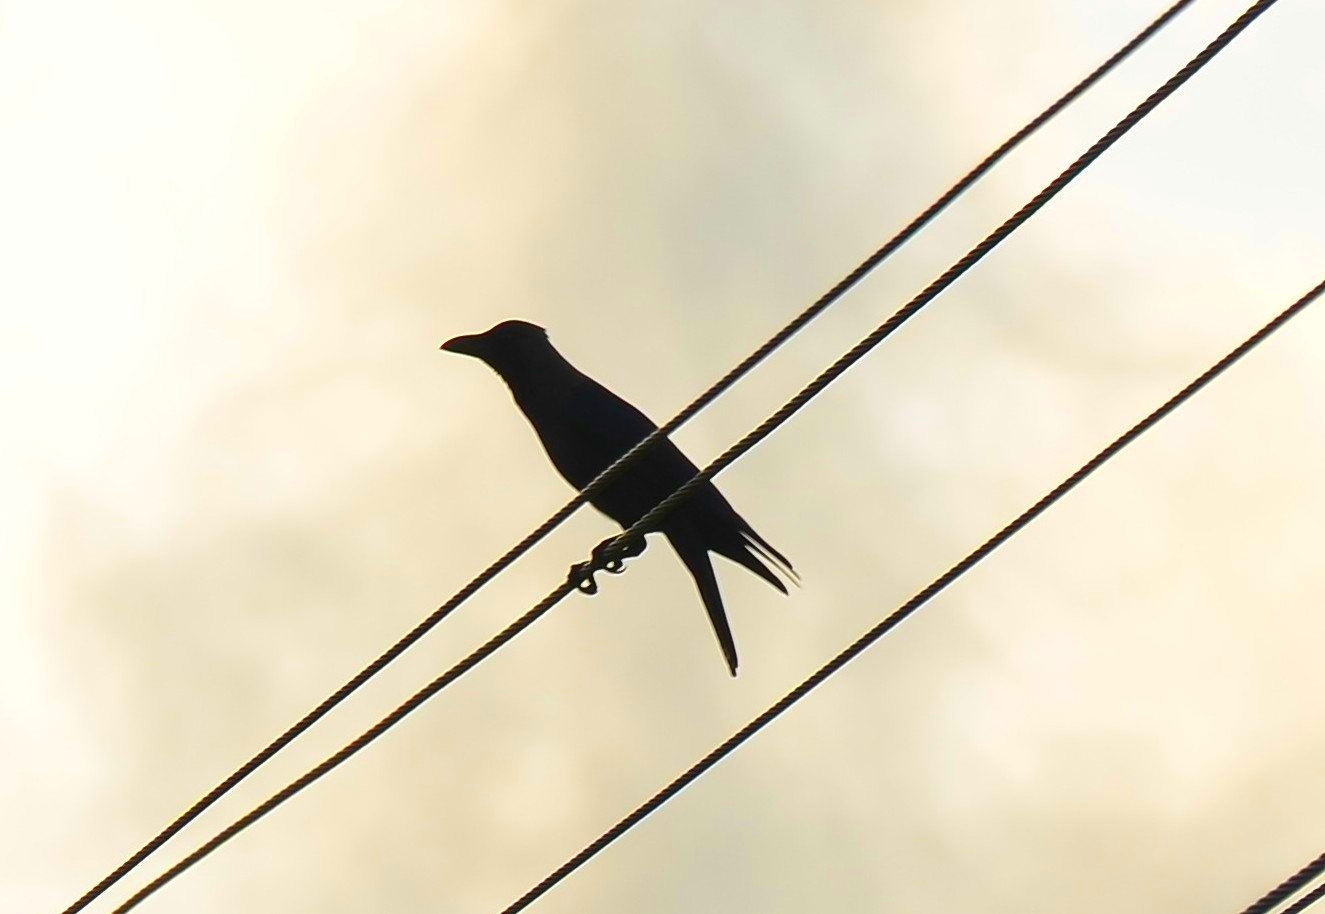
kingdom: Animalia
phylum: Chordata
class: Aves
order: Passeriformes
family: Corvidae
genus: Corvus
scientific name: Corvus splendens
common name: House crow
